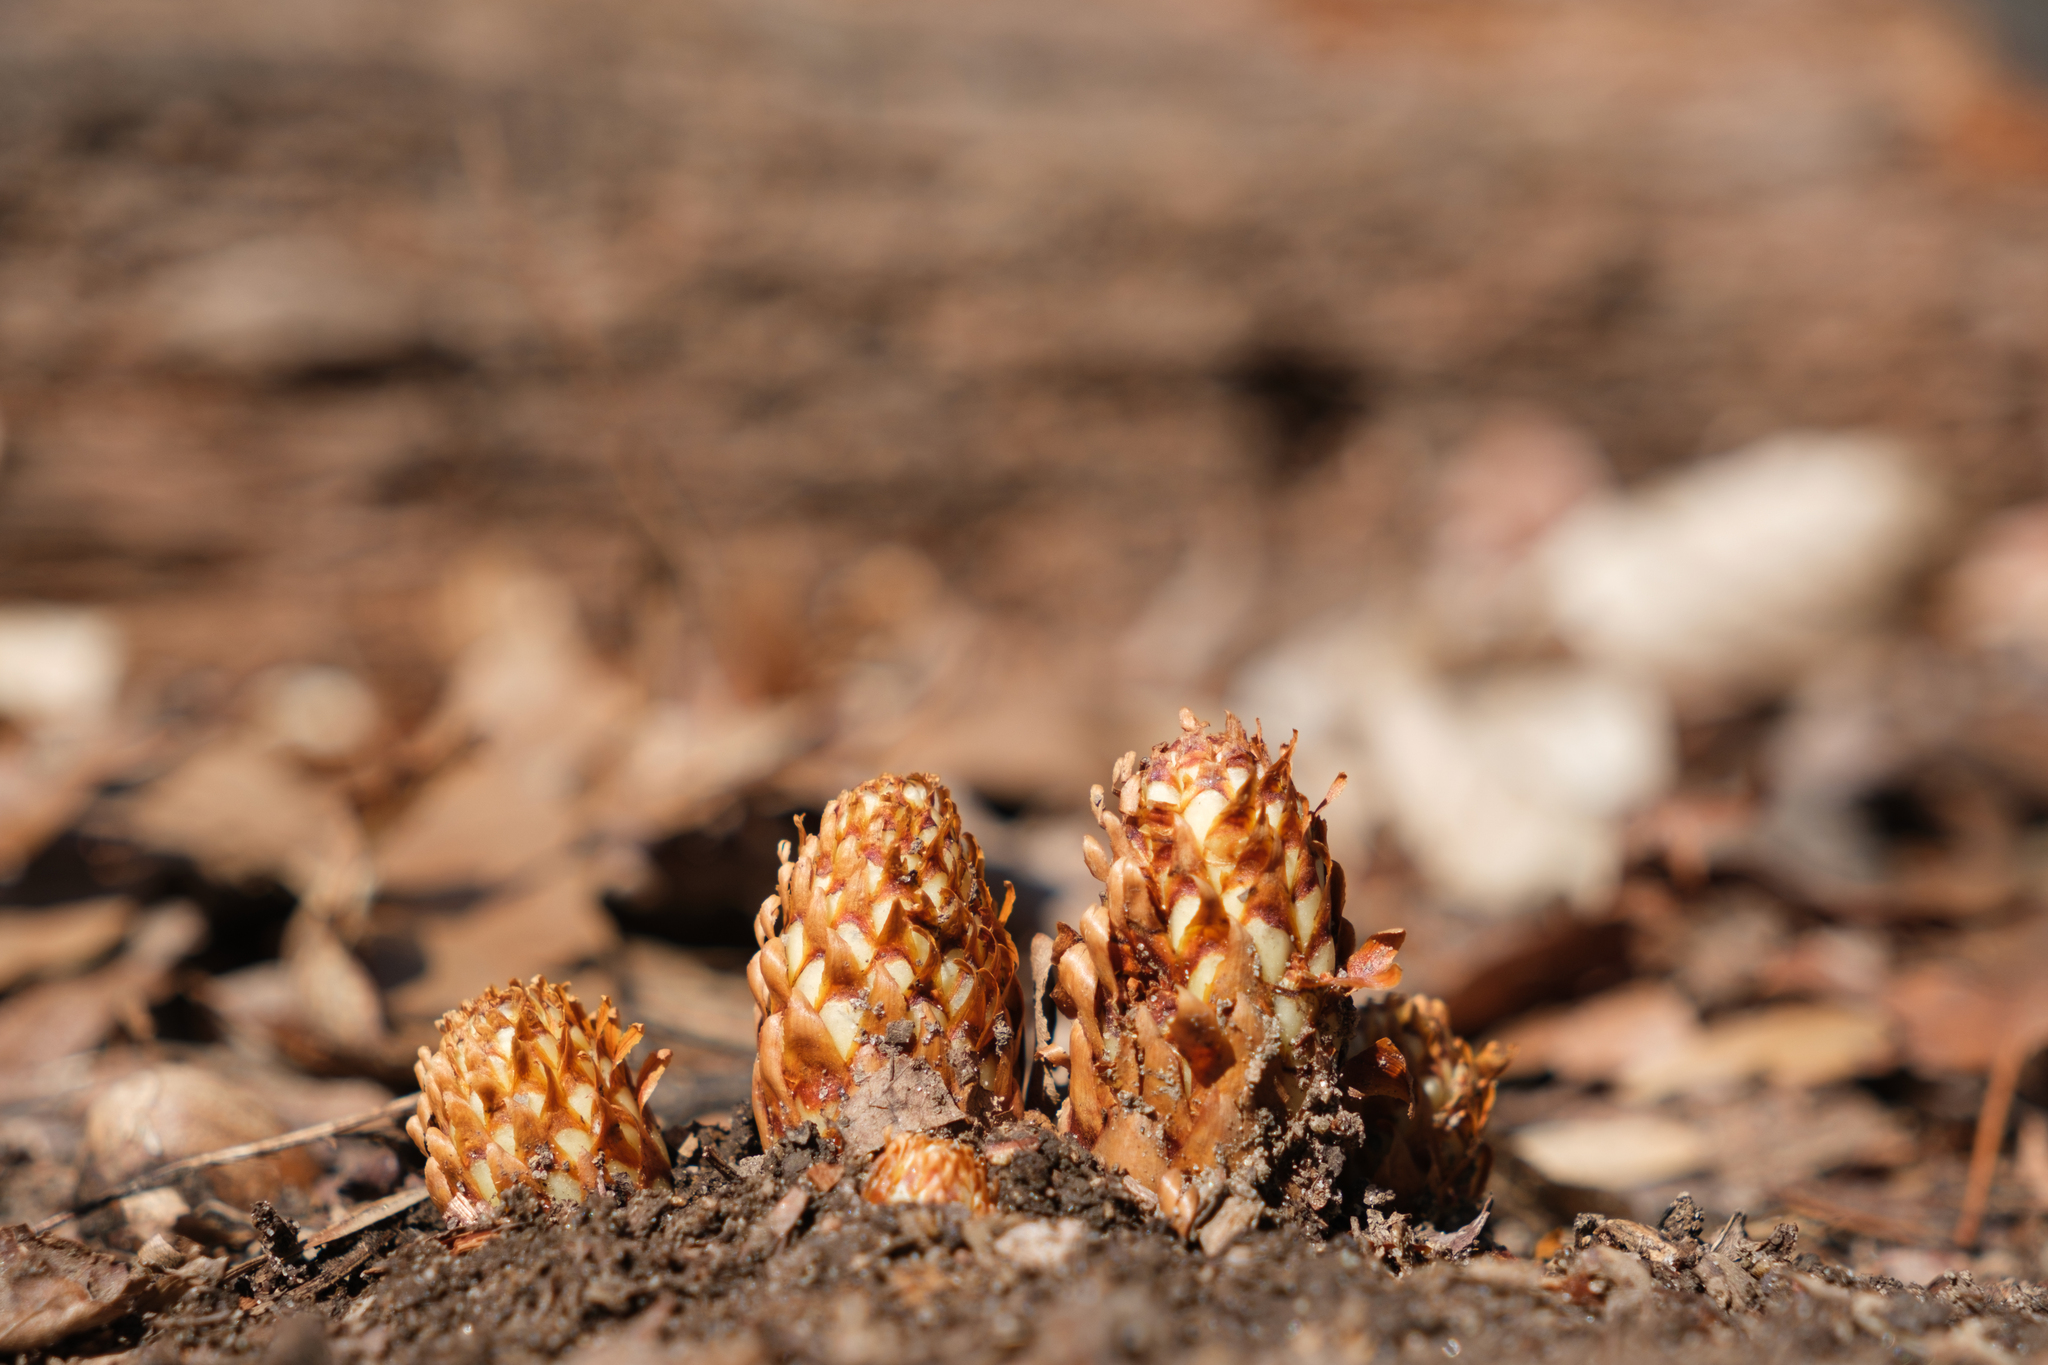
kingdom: Plantae
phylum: Tracheophyta
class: Magnoliopsida
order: Lamiales
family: Orobanchaceae
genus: Conopholis
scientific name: Conopholis americana
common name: American cancer-root
